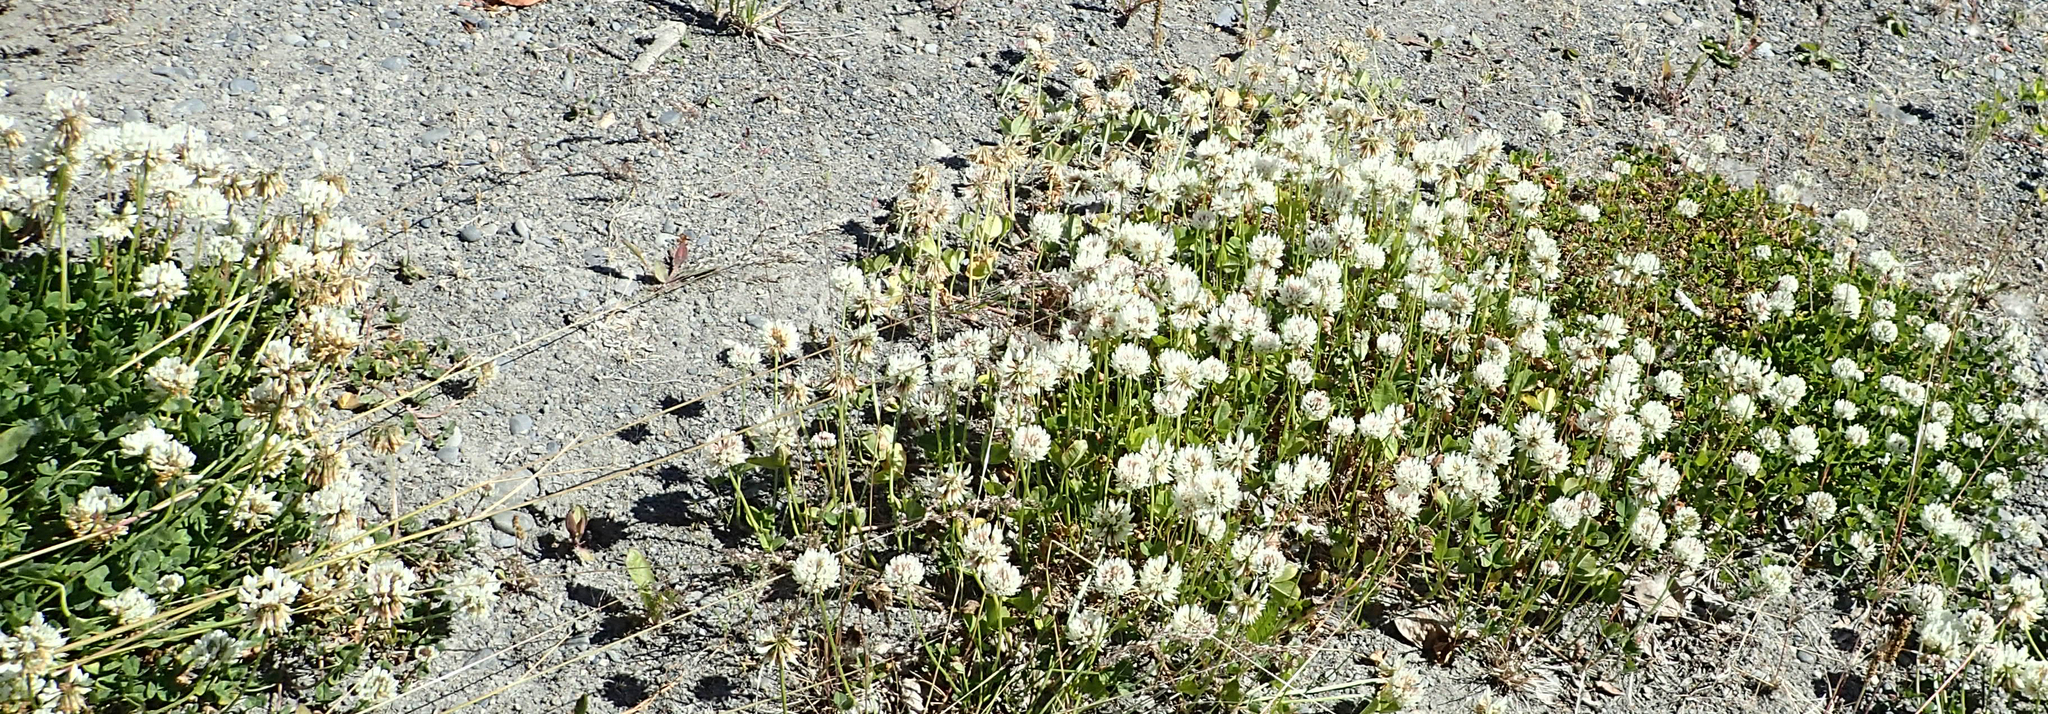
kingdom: Plantae
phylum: Tracheophyta
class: Magnoliopsida
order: Fabales
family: Fabaceae
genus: Trifolium
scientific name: Trifolium repens
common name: White clover
